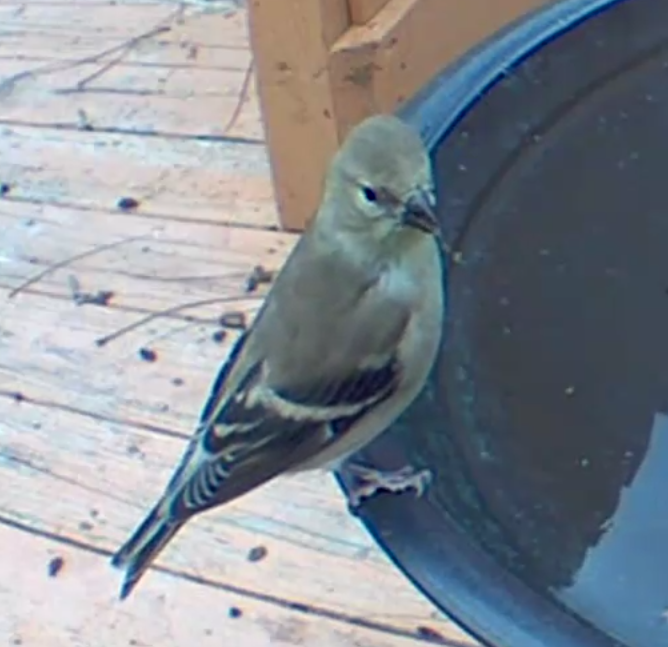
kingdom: Animalia
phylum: Chordata
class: Aves
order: Passeriformes
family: Fringillidae
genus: Spinus
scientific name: Spinus tristis
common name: American goldfinch
